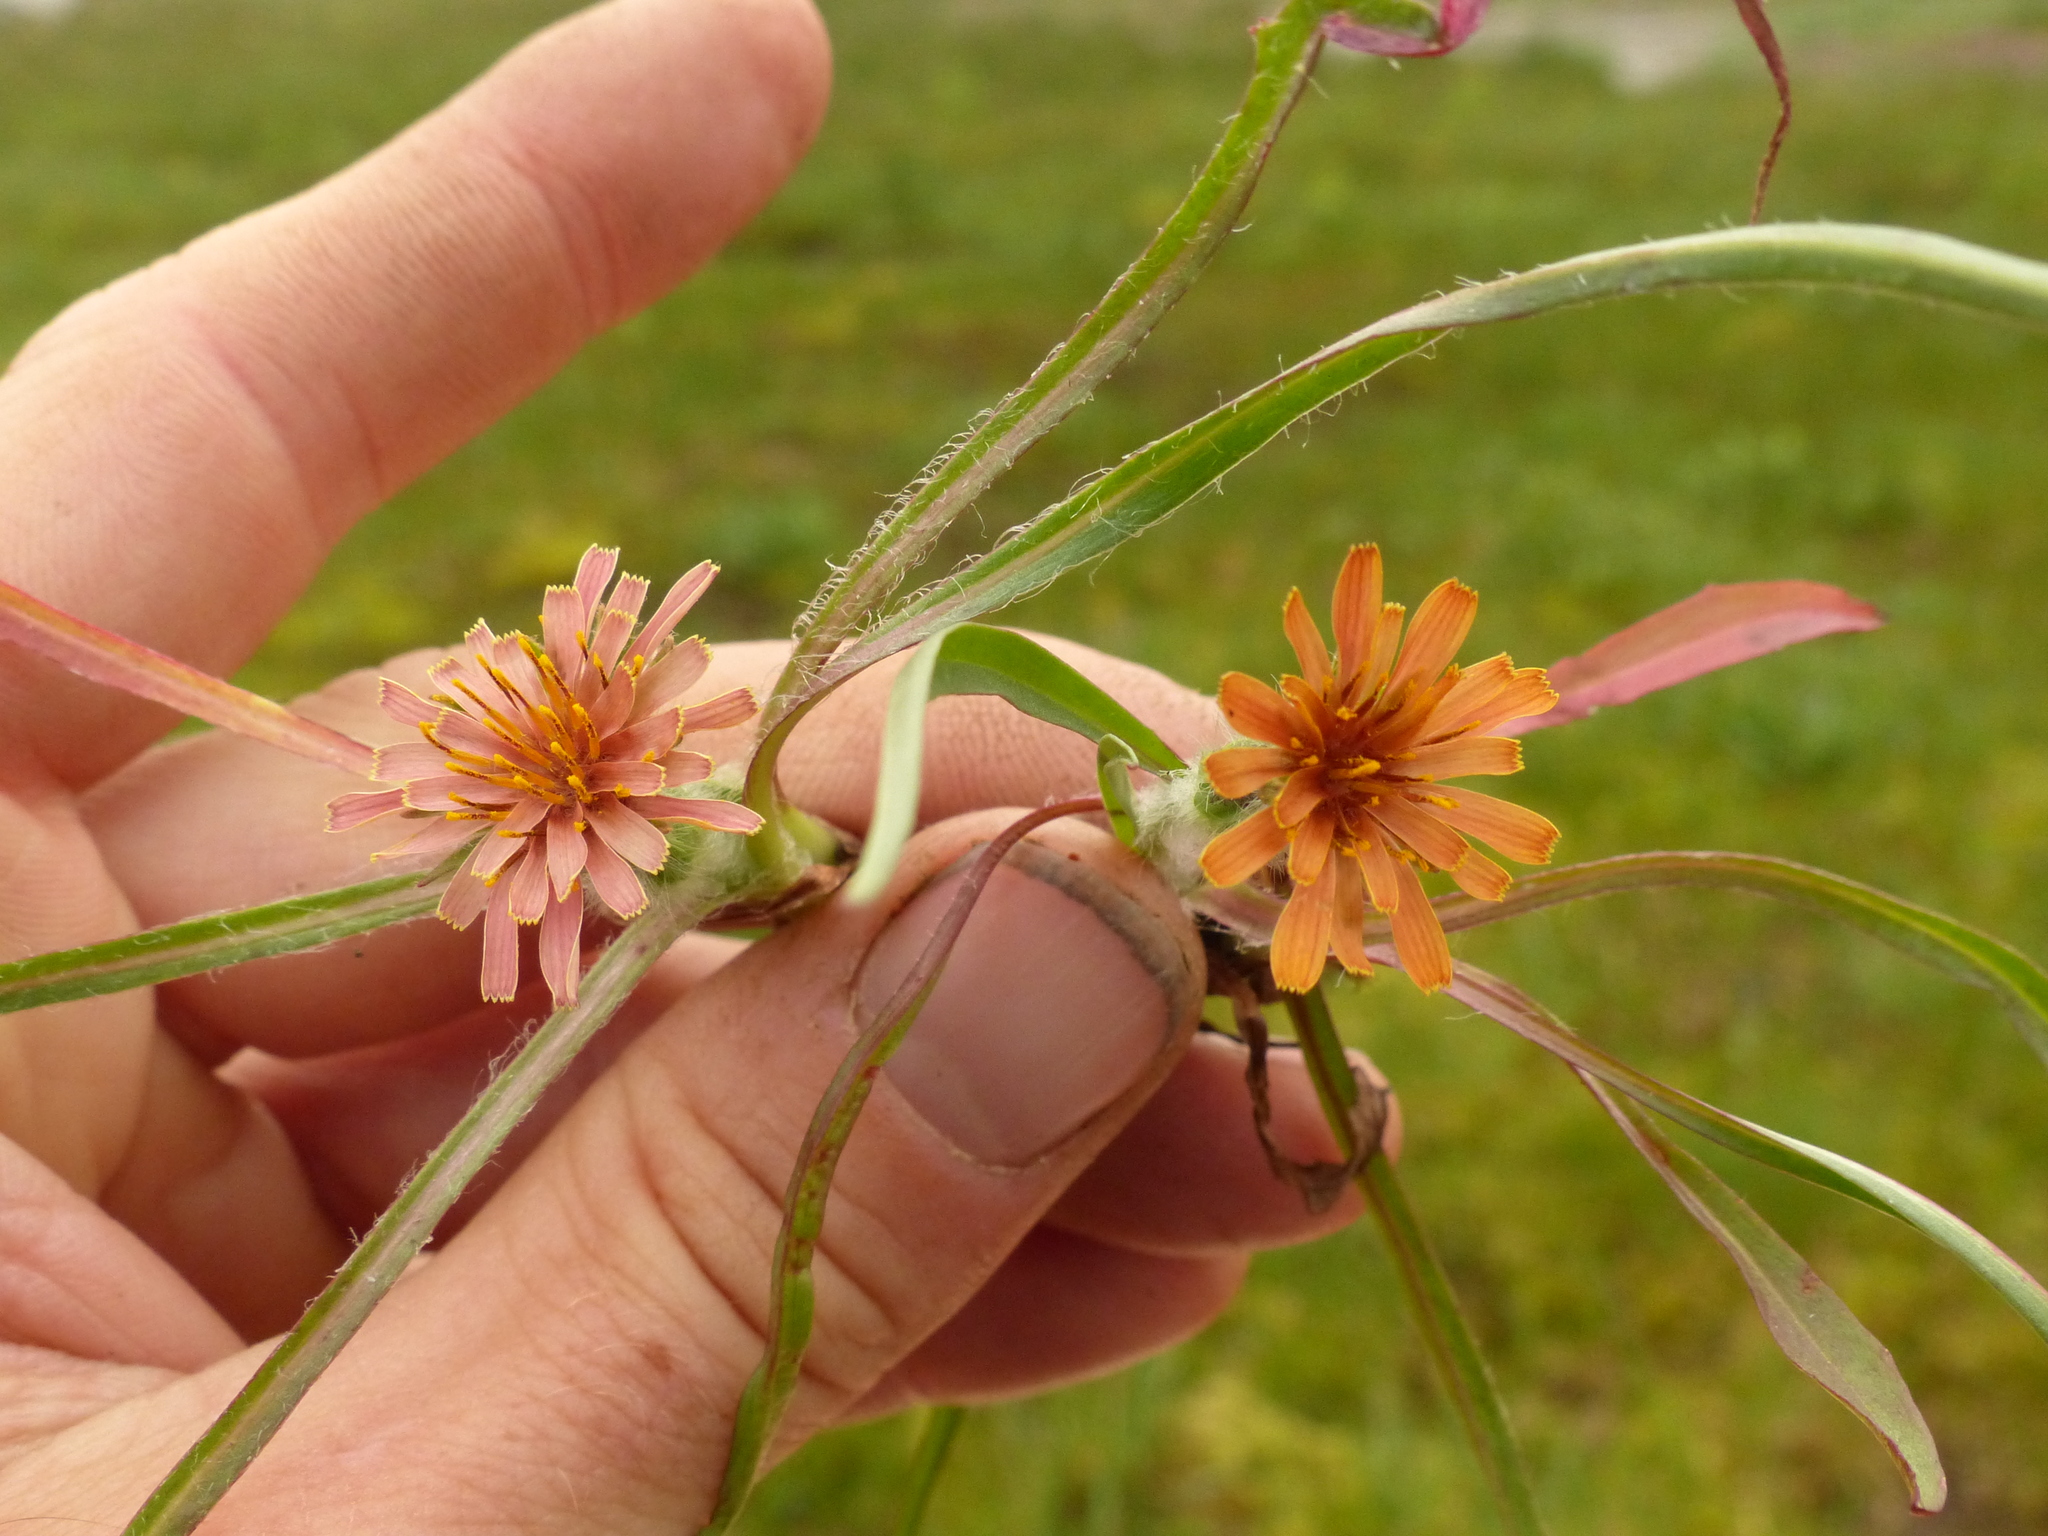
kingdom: Plantae
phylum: Tracheophyta
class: Magnoliopsida
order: Asterales
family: Asteraceae
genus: Agoseris
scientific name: Agoseris aurantiaca
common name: Mountain agoseris
